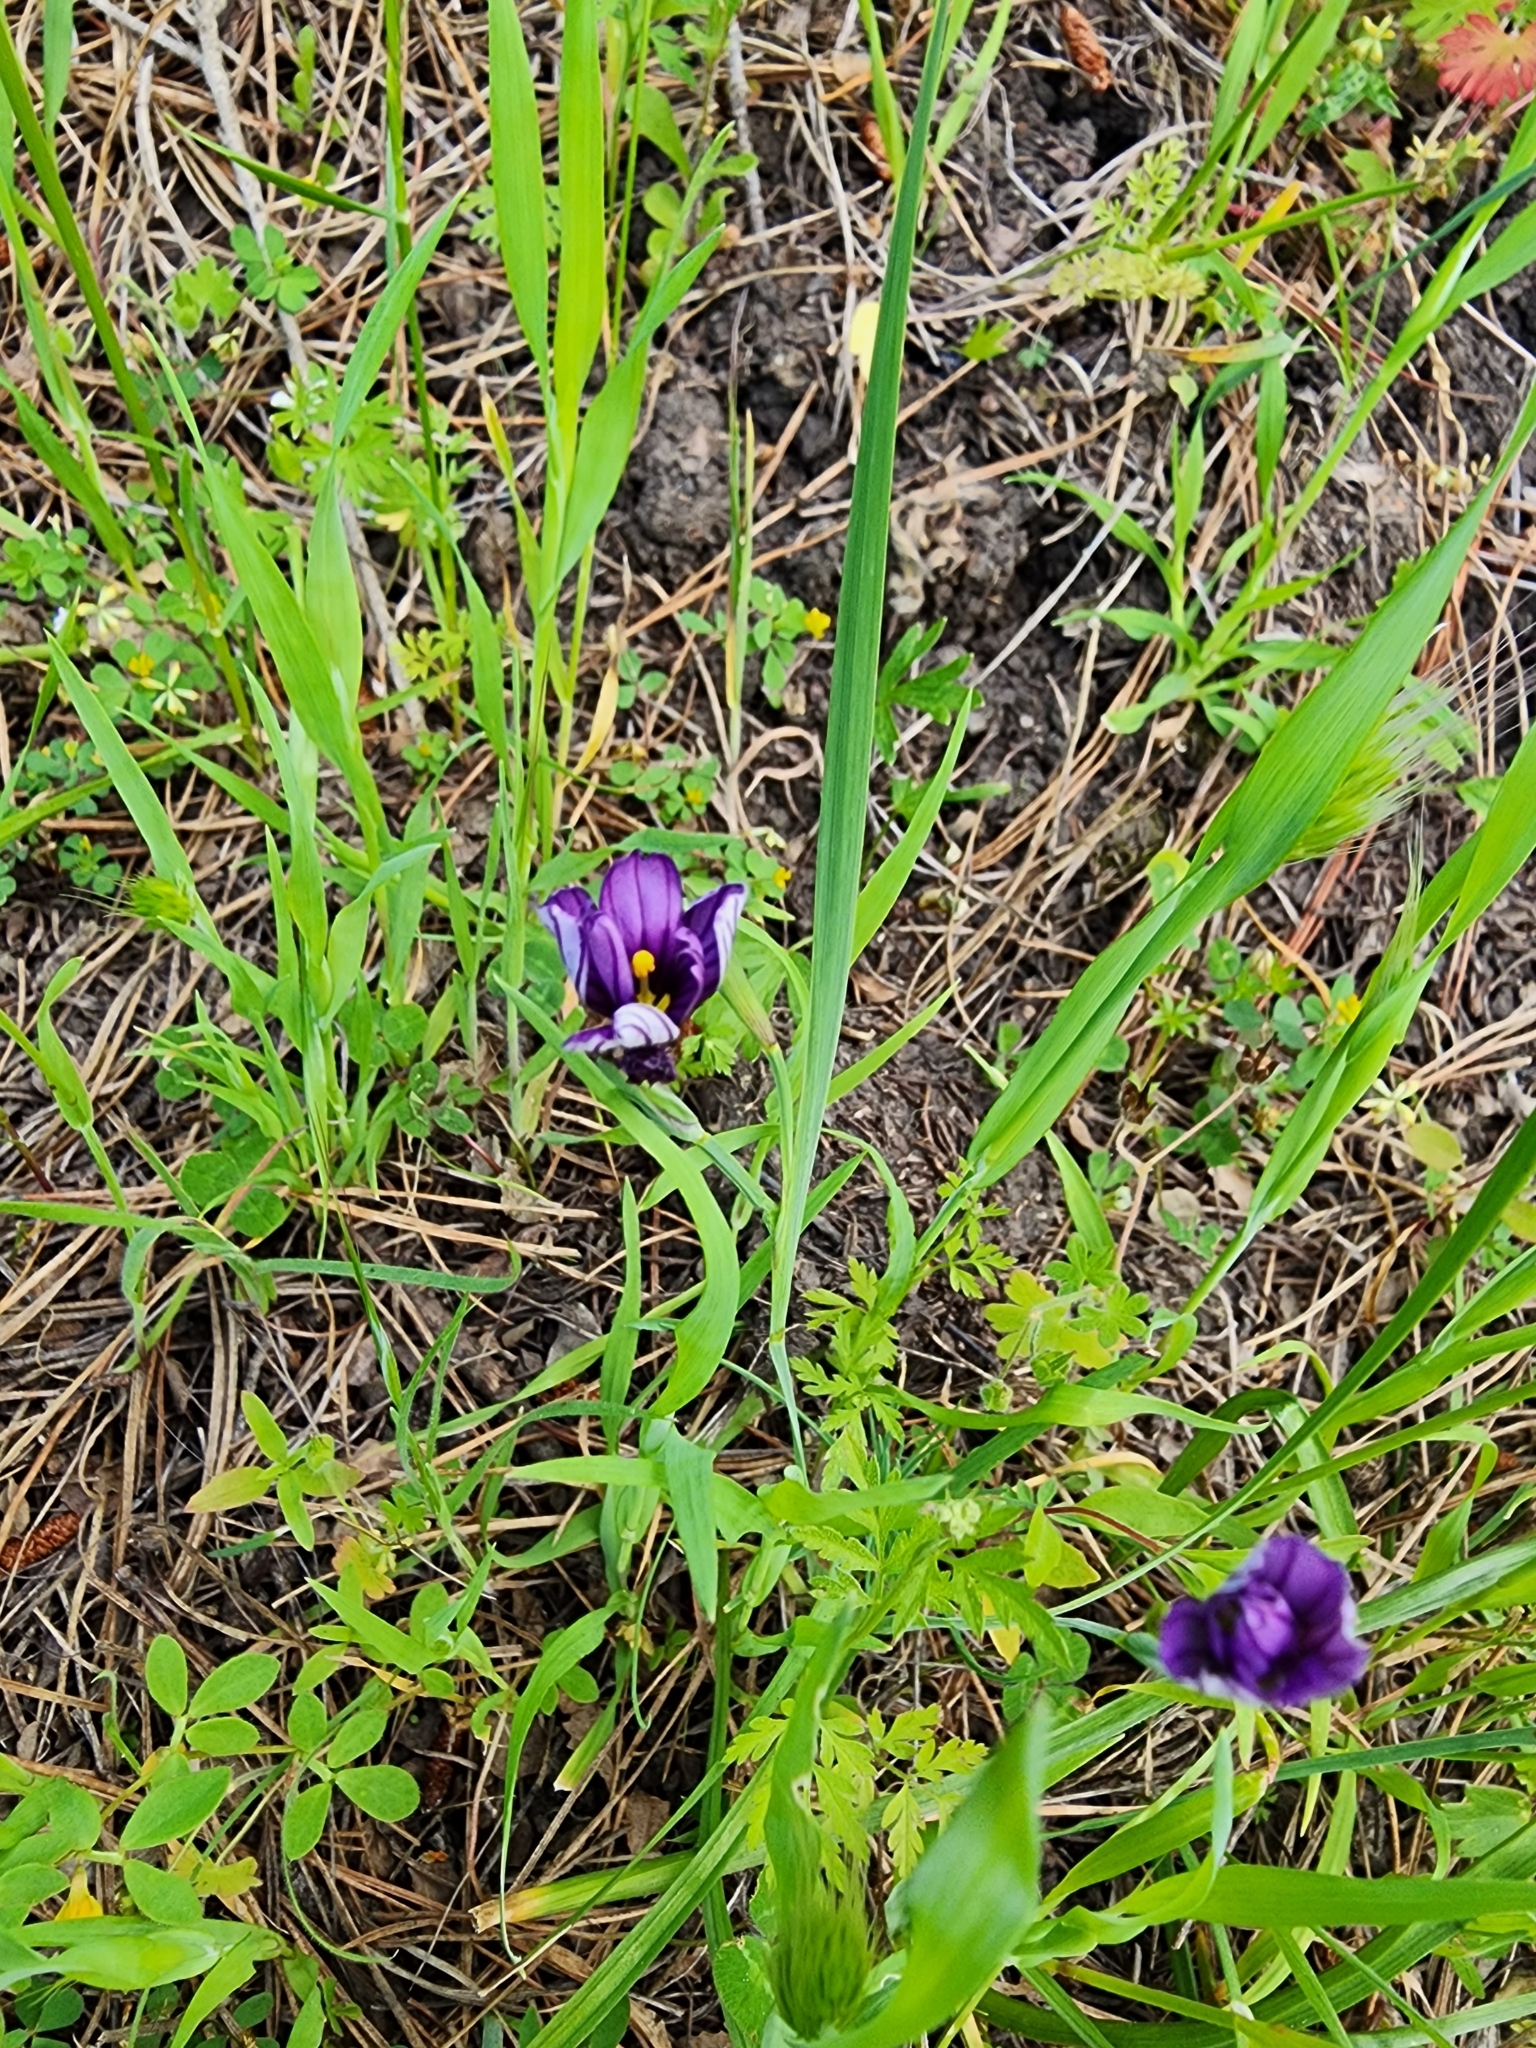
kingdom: Plantae
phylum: Tracheophyta
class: Liliopsida
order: Asparagales
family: Iridaceae
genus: Sisyrinchium
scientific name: Sisyrinchium bellum
